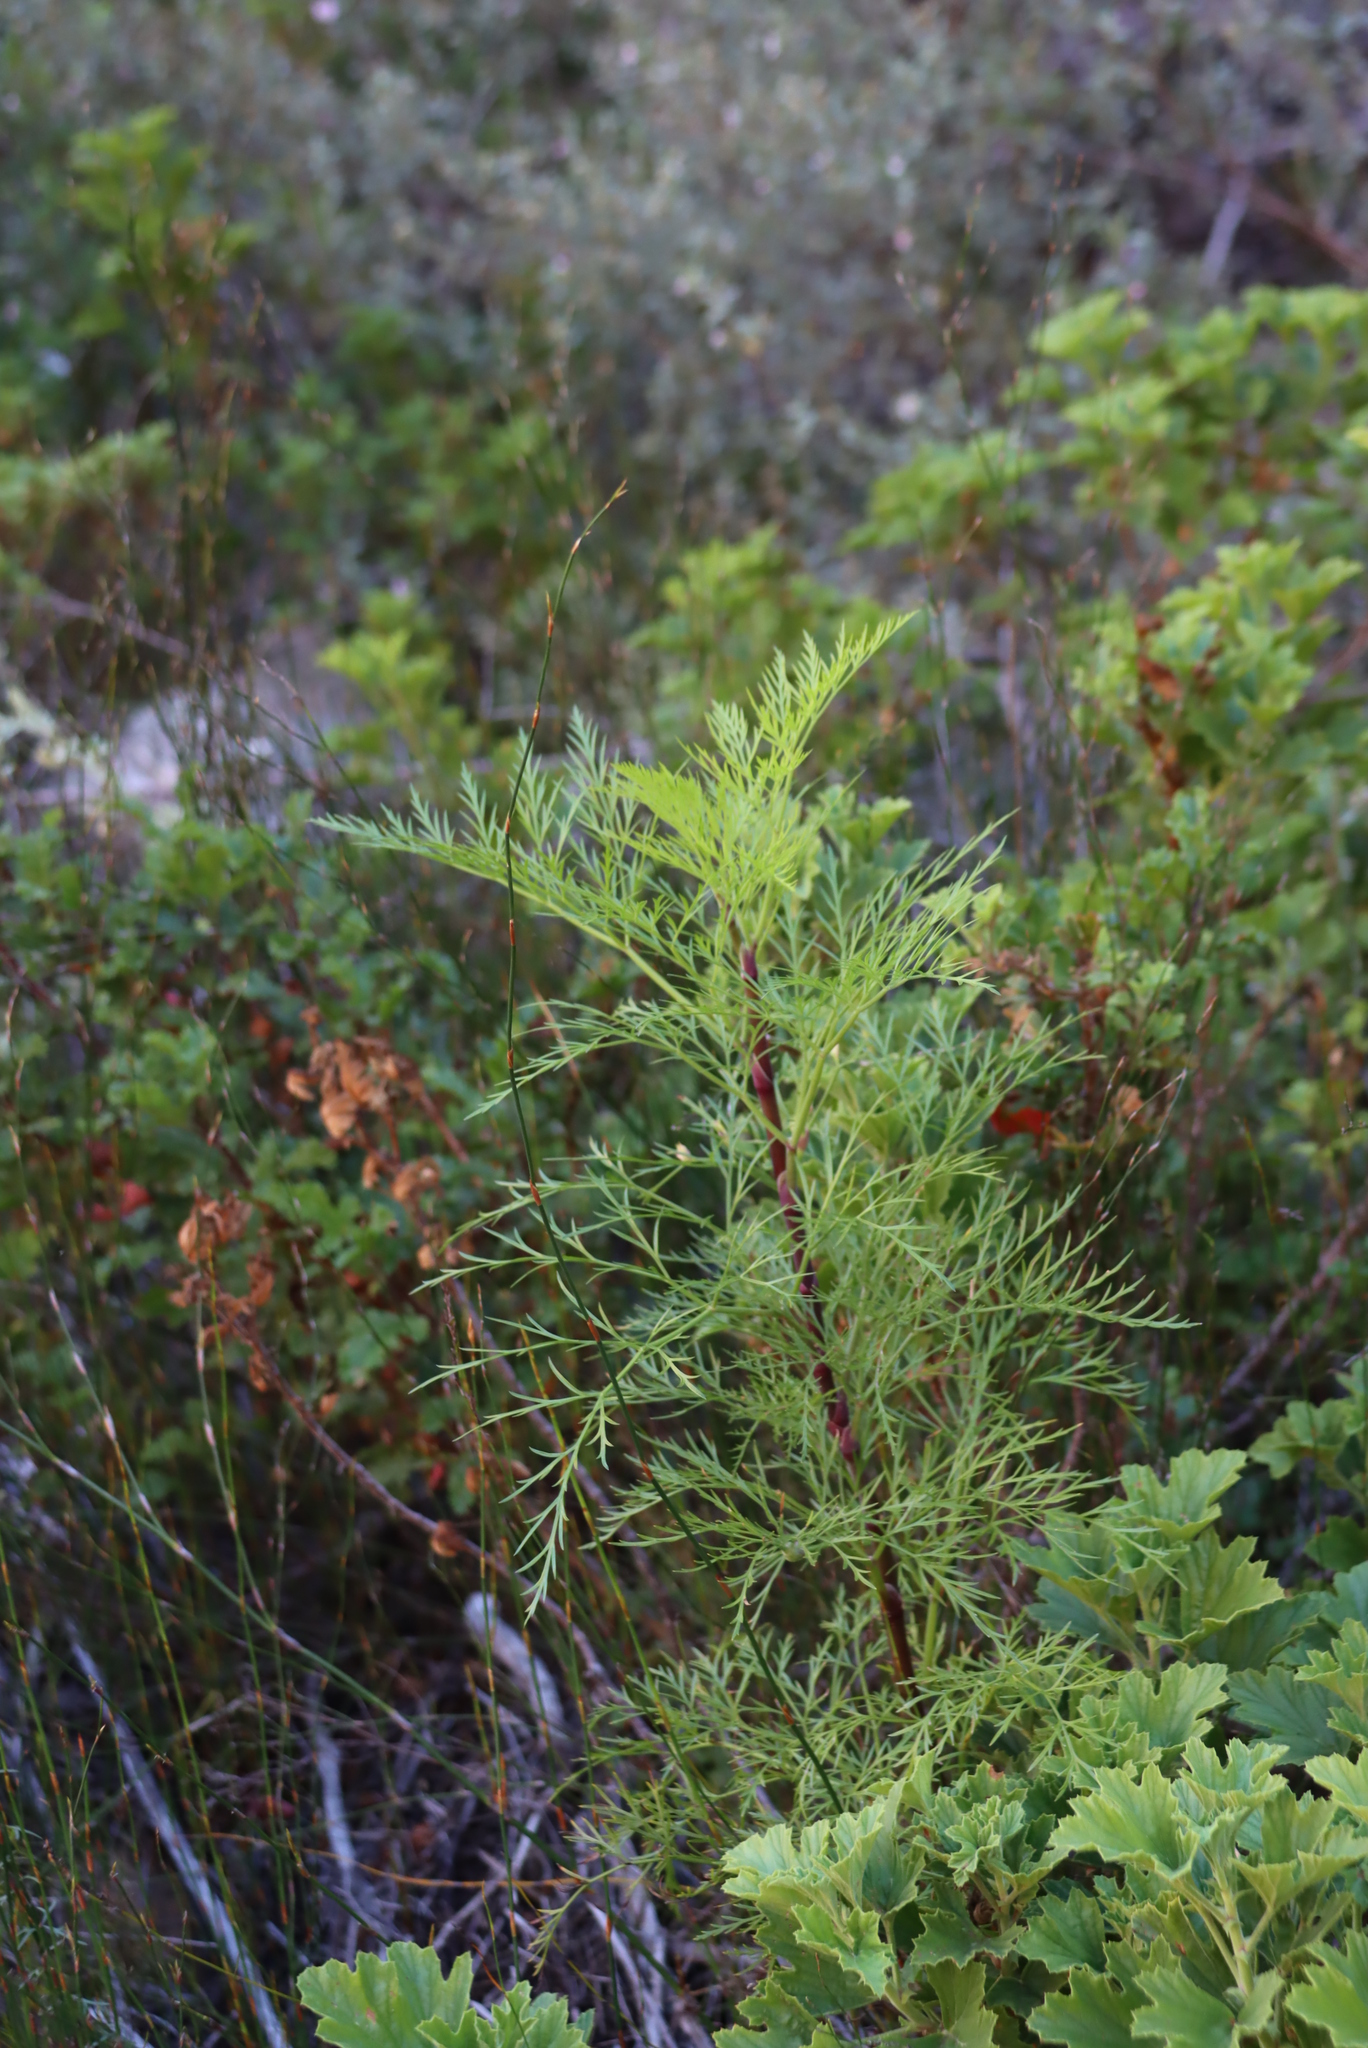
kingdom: Plantae
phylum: Tracheophyta
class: Magnoliopsida
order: Apiales
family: Apiaceae
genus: Notobubon
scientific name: Notobubon tenuifolium
